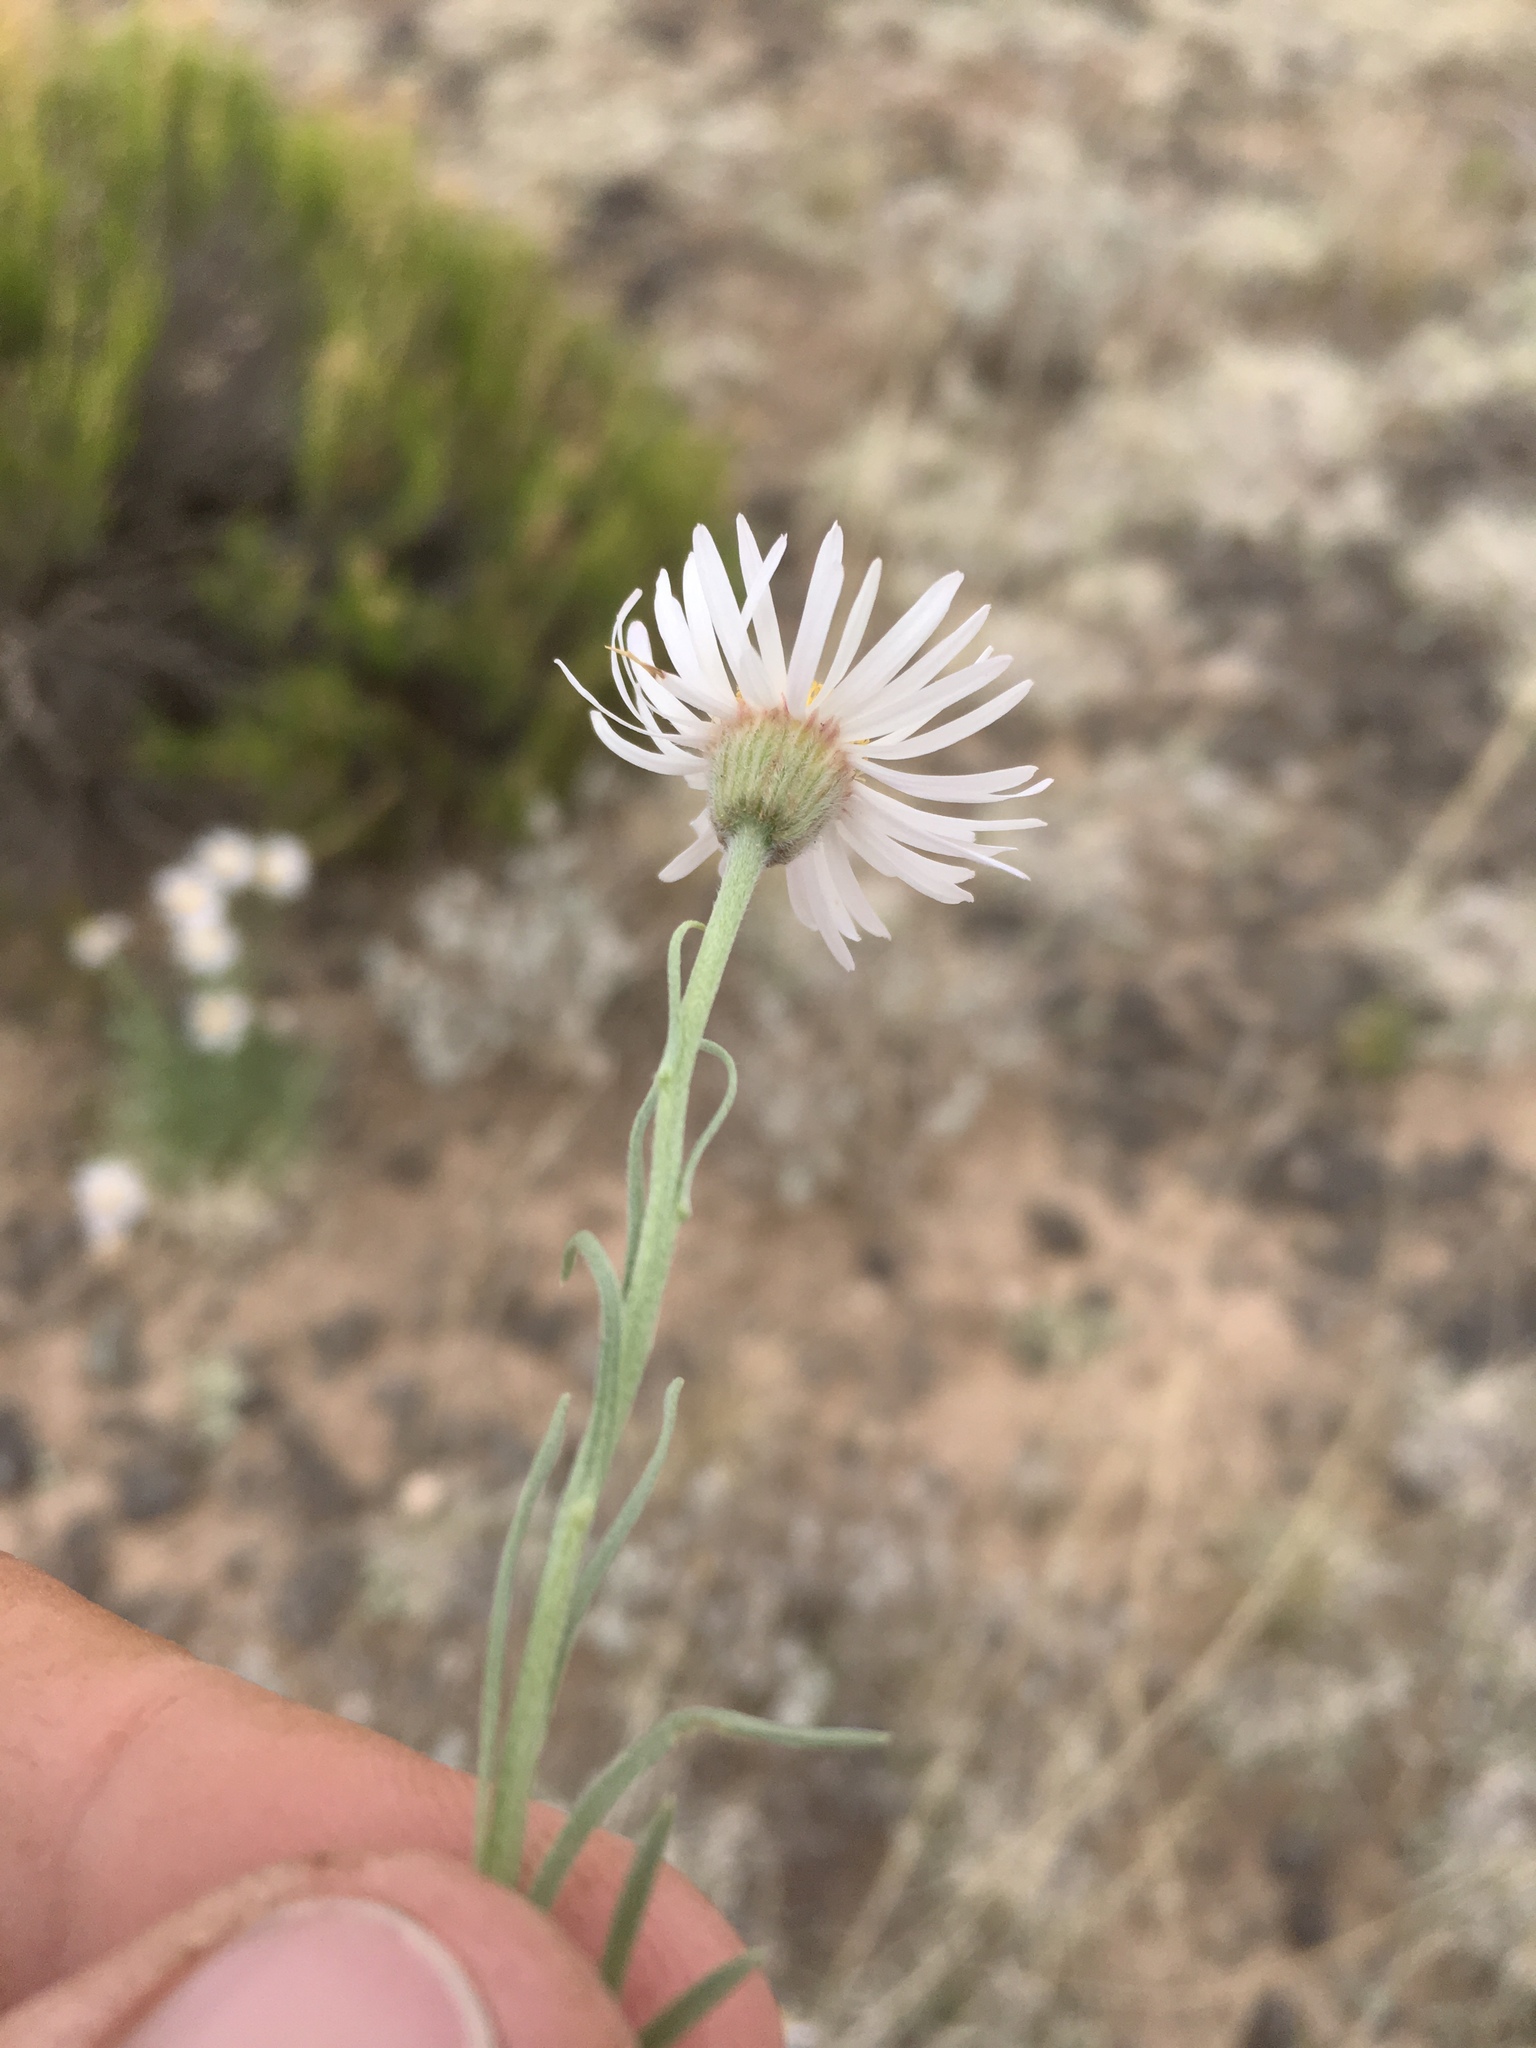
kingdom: Plantae
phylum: Tracheophyta
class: Magnoliopsida
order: Asterales
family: Asteraceae
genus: Erigeron
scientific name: Erigeron pulcherrimus
